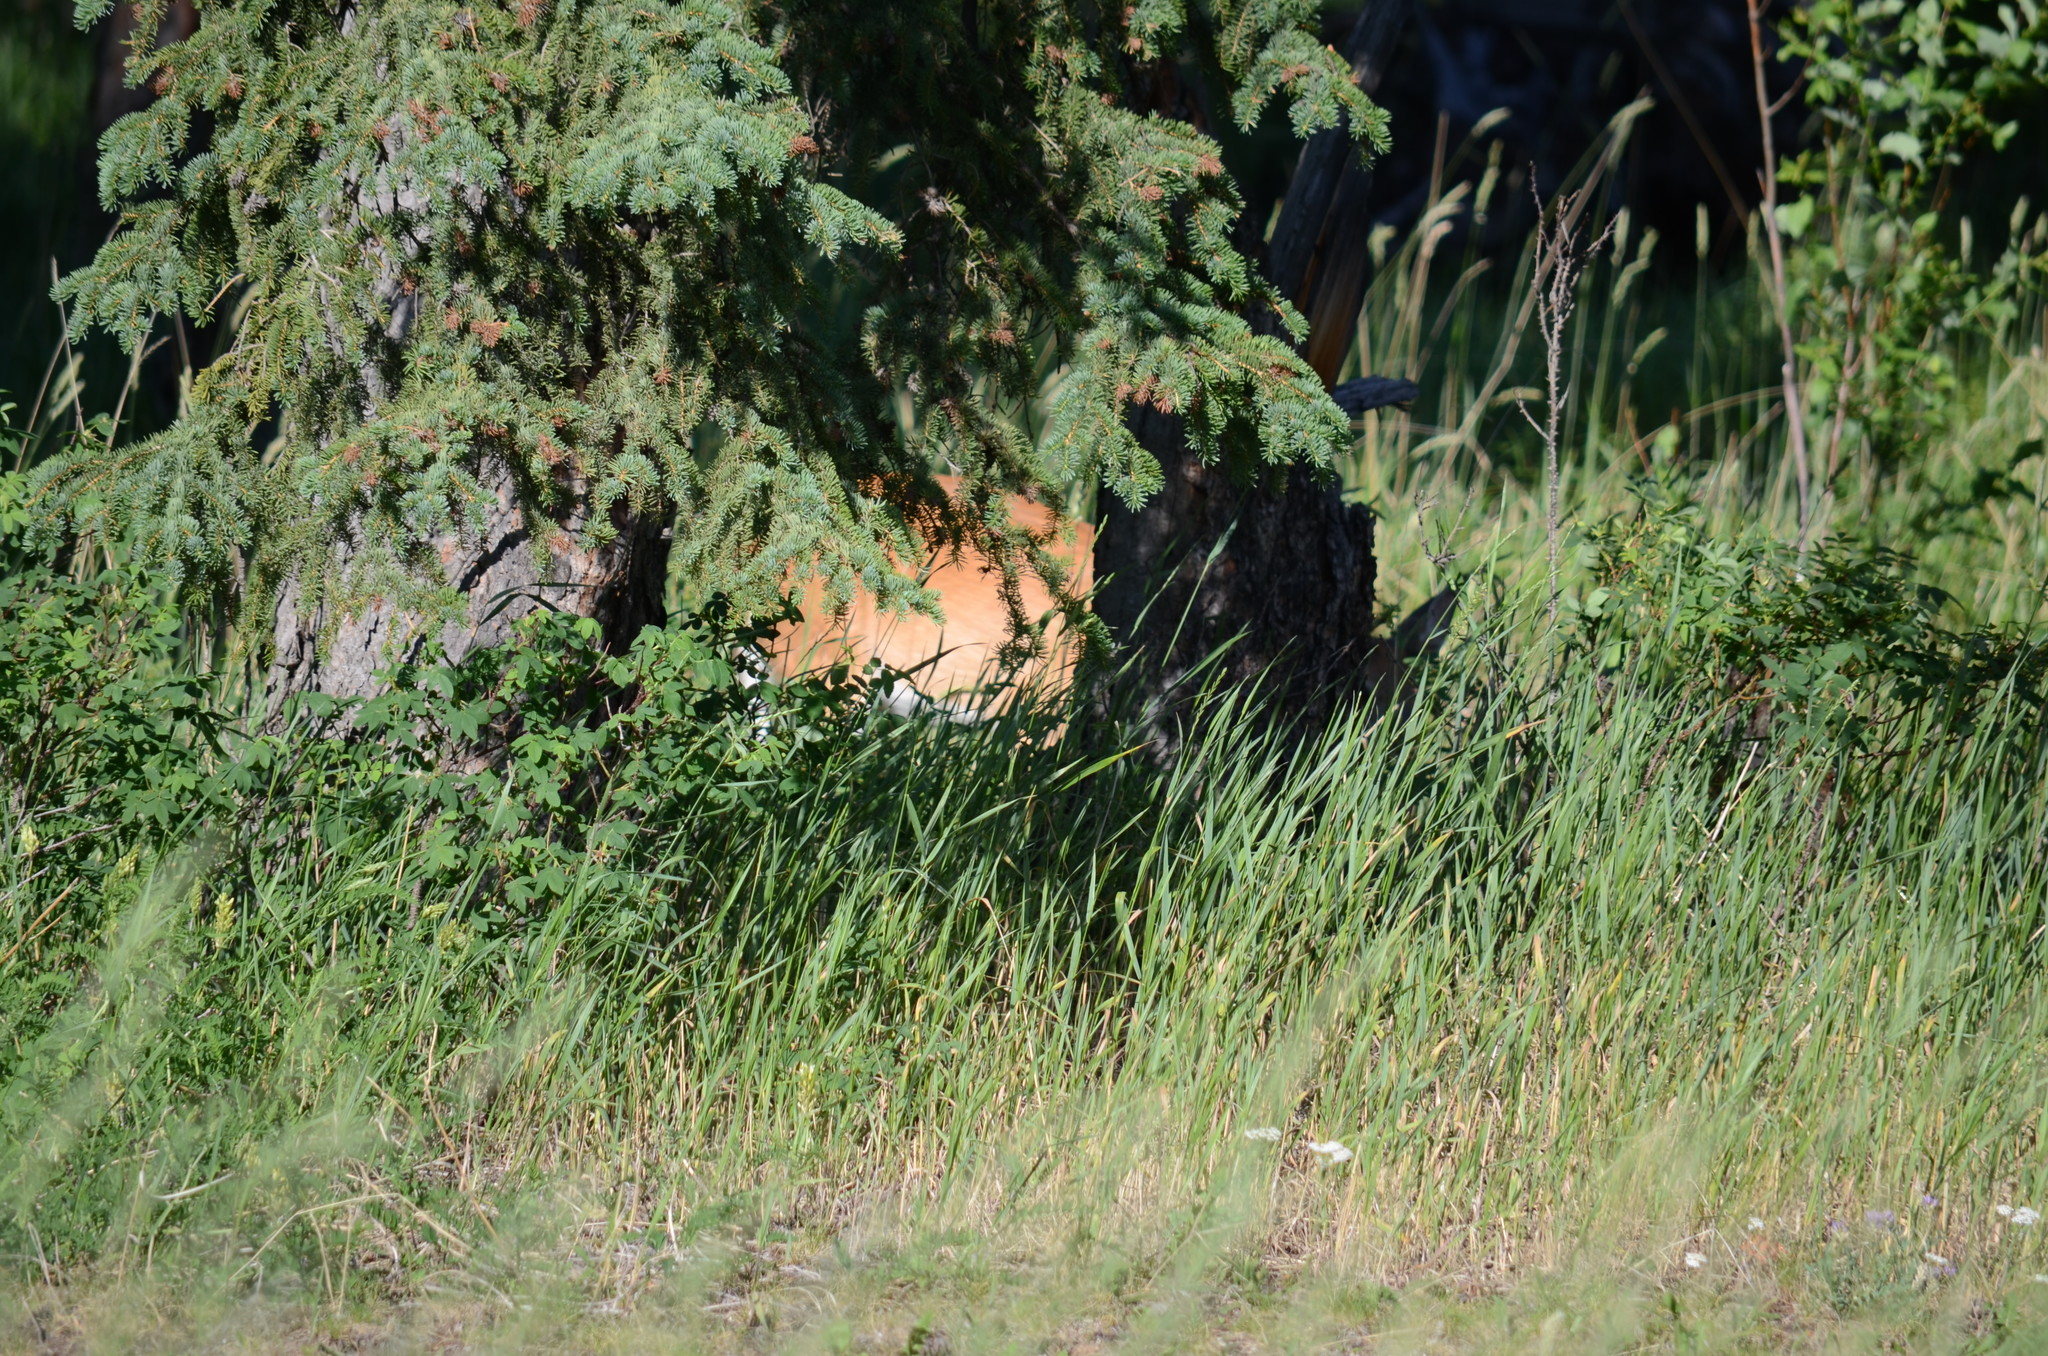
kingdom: Animalia
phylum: Chordata
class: Mammalia
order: Artiodactyla
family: Cervidae
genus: Odocoileus
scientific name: Odocoileus virginianus
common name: White-tailed deer
